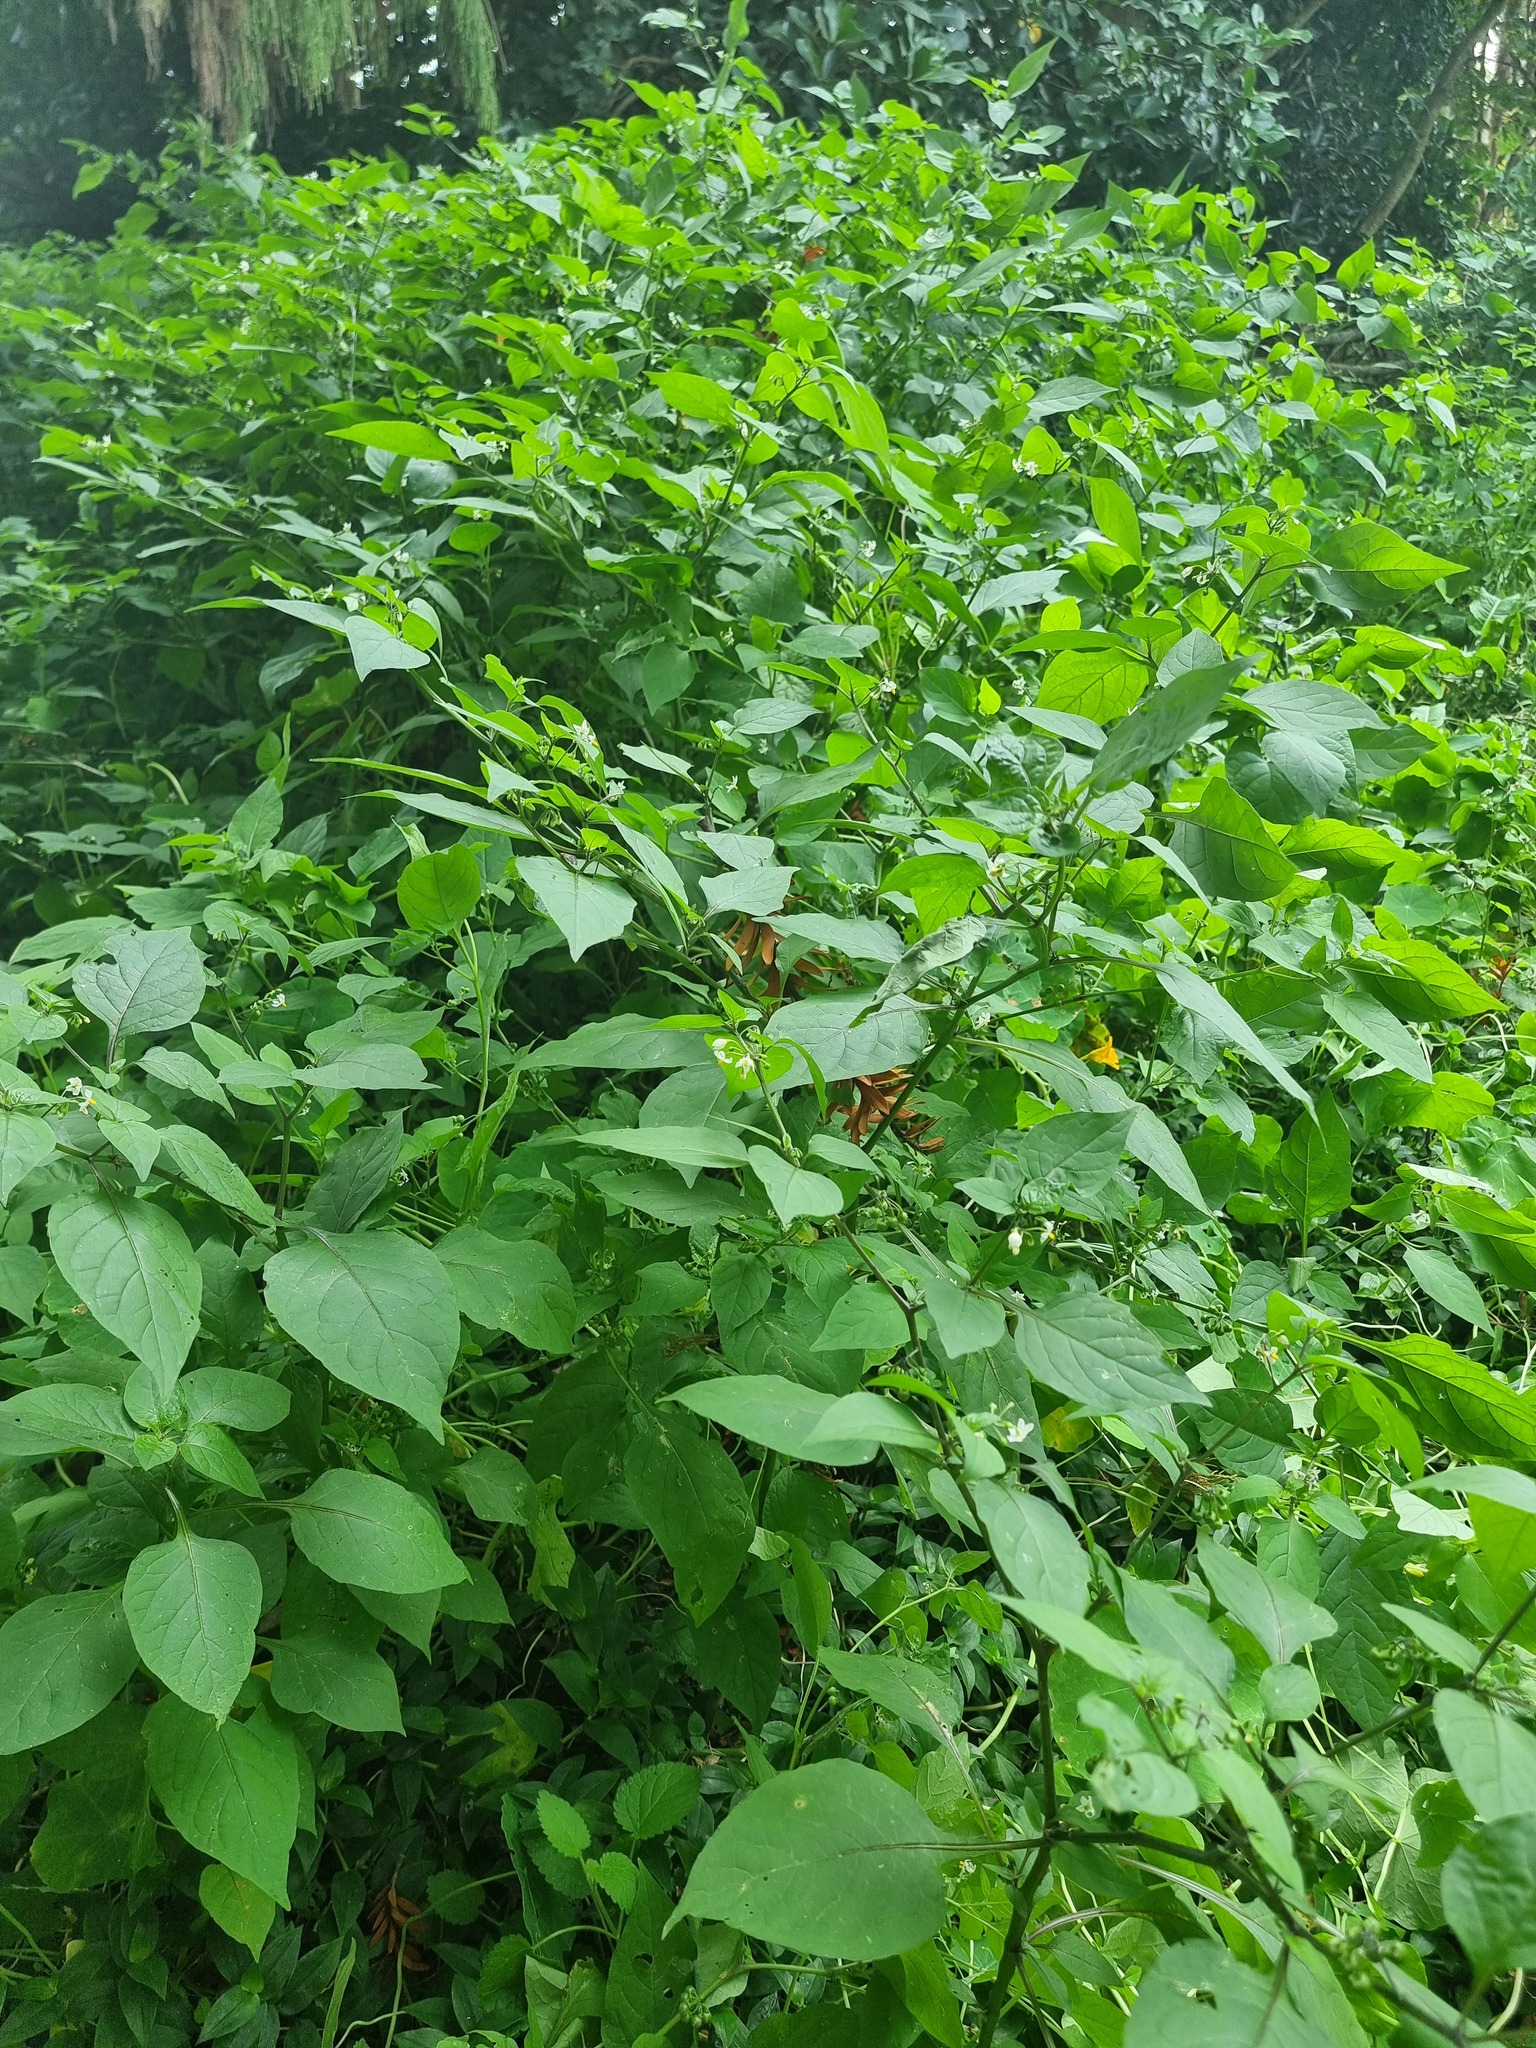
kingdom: Plantae
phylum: Tracheophyta
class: Magnoliopsida
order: Solanales
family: Solanaceae
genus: Solanum
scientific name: Solanum nigrum
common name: Black nightshade
